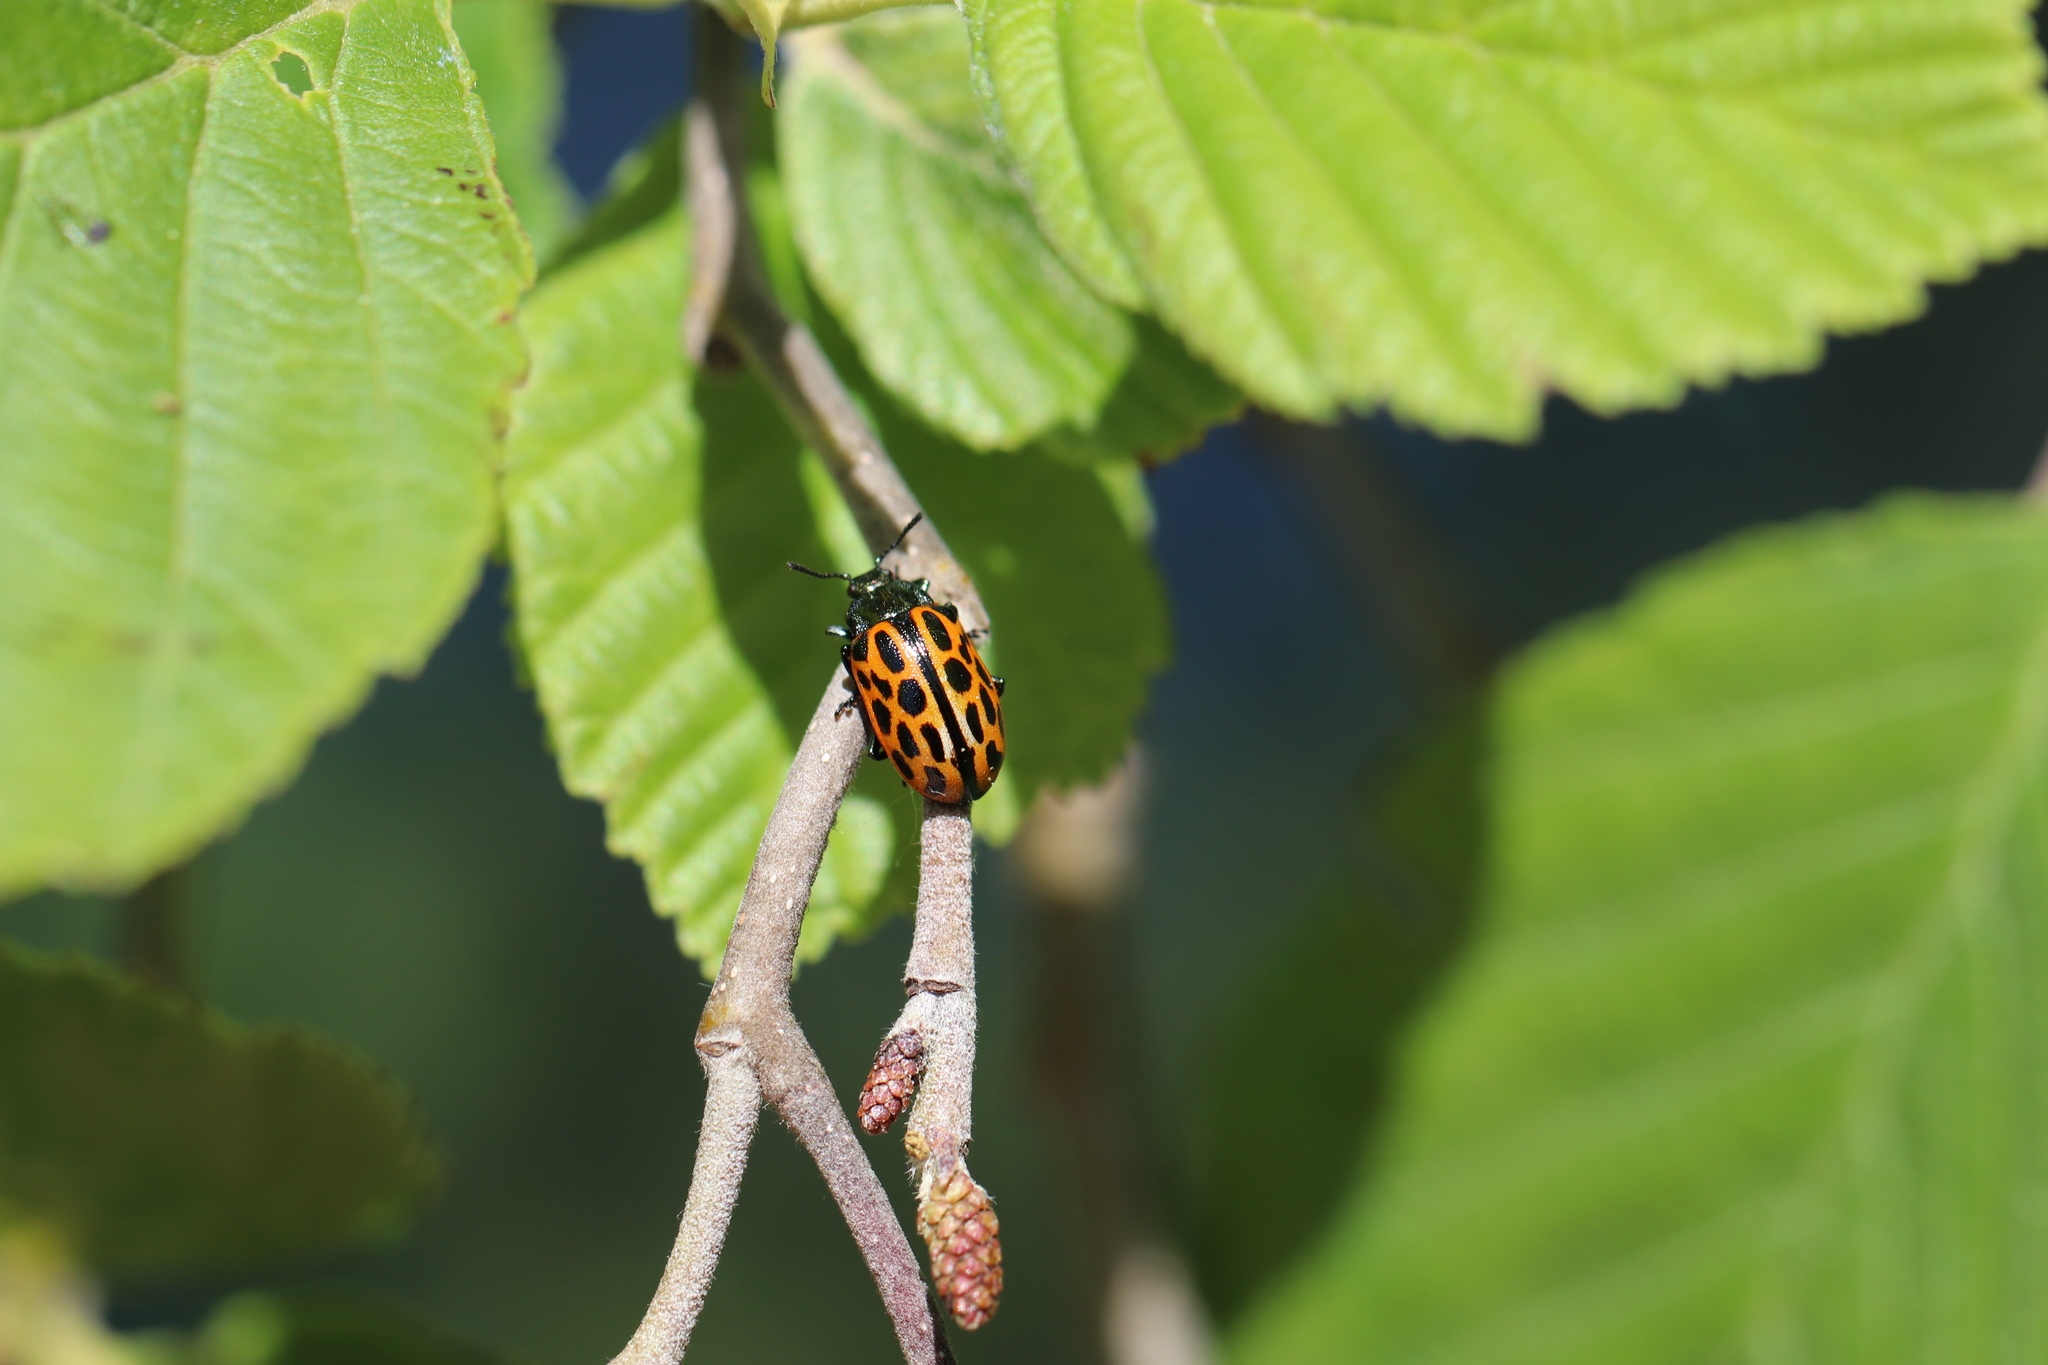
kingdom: Animalia
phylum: Arthropoda
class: Insecta
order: Coleoptera
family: Chrysomelidae
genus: Chrysomela
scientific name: Chrysomela vigintipunctata
